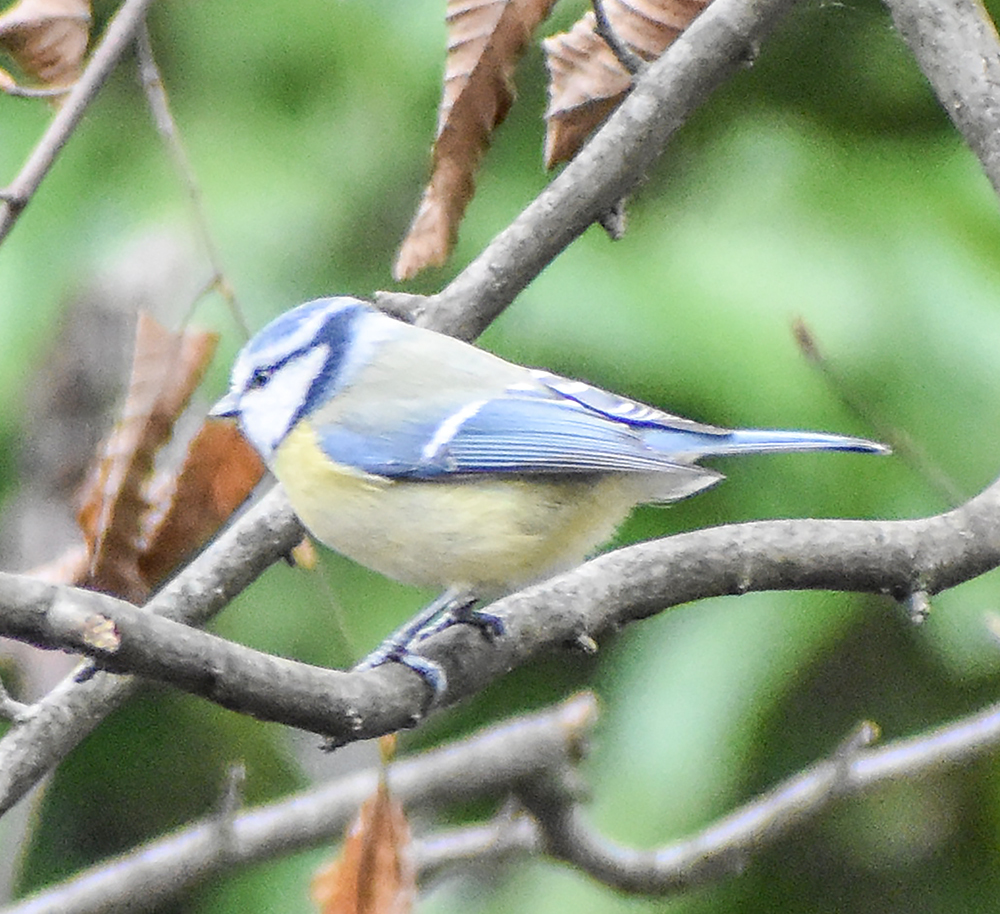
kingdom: Animalia
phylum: Chordata
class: Aves
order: Passeriformes
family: Paridae
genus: Cyanistes
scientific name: Cyanistes caeruleus
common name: Eurasian blue tit
